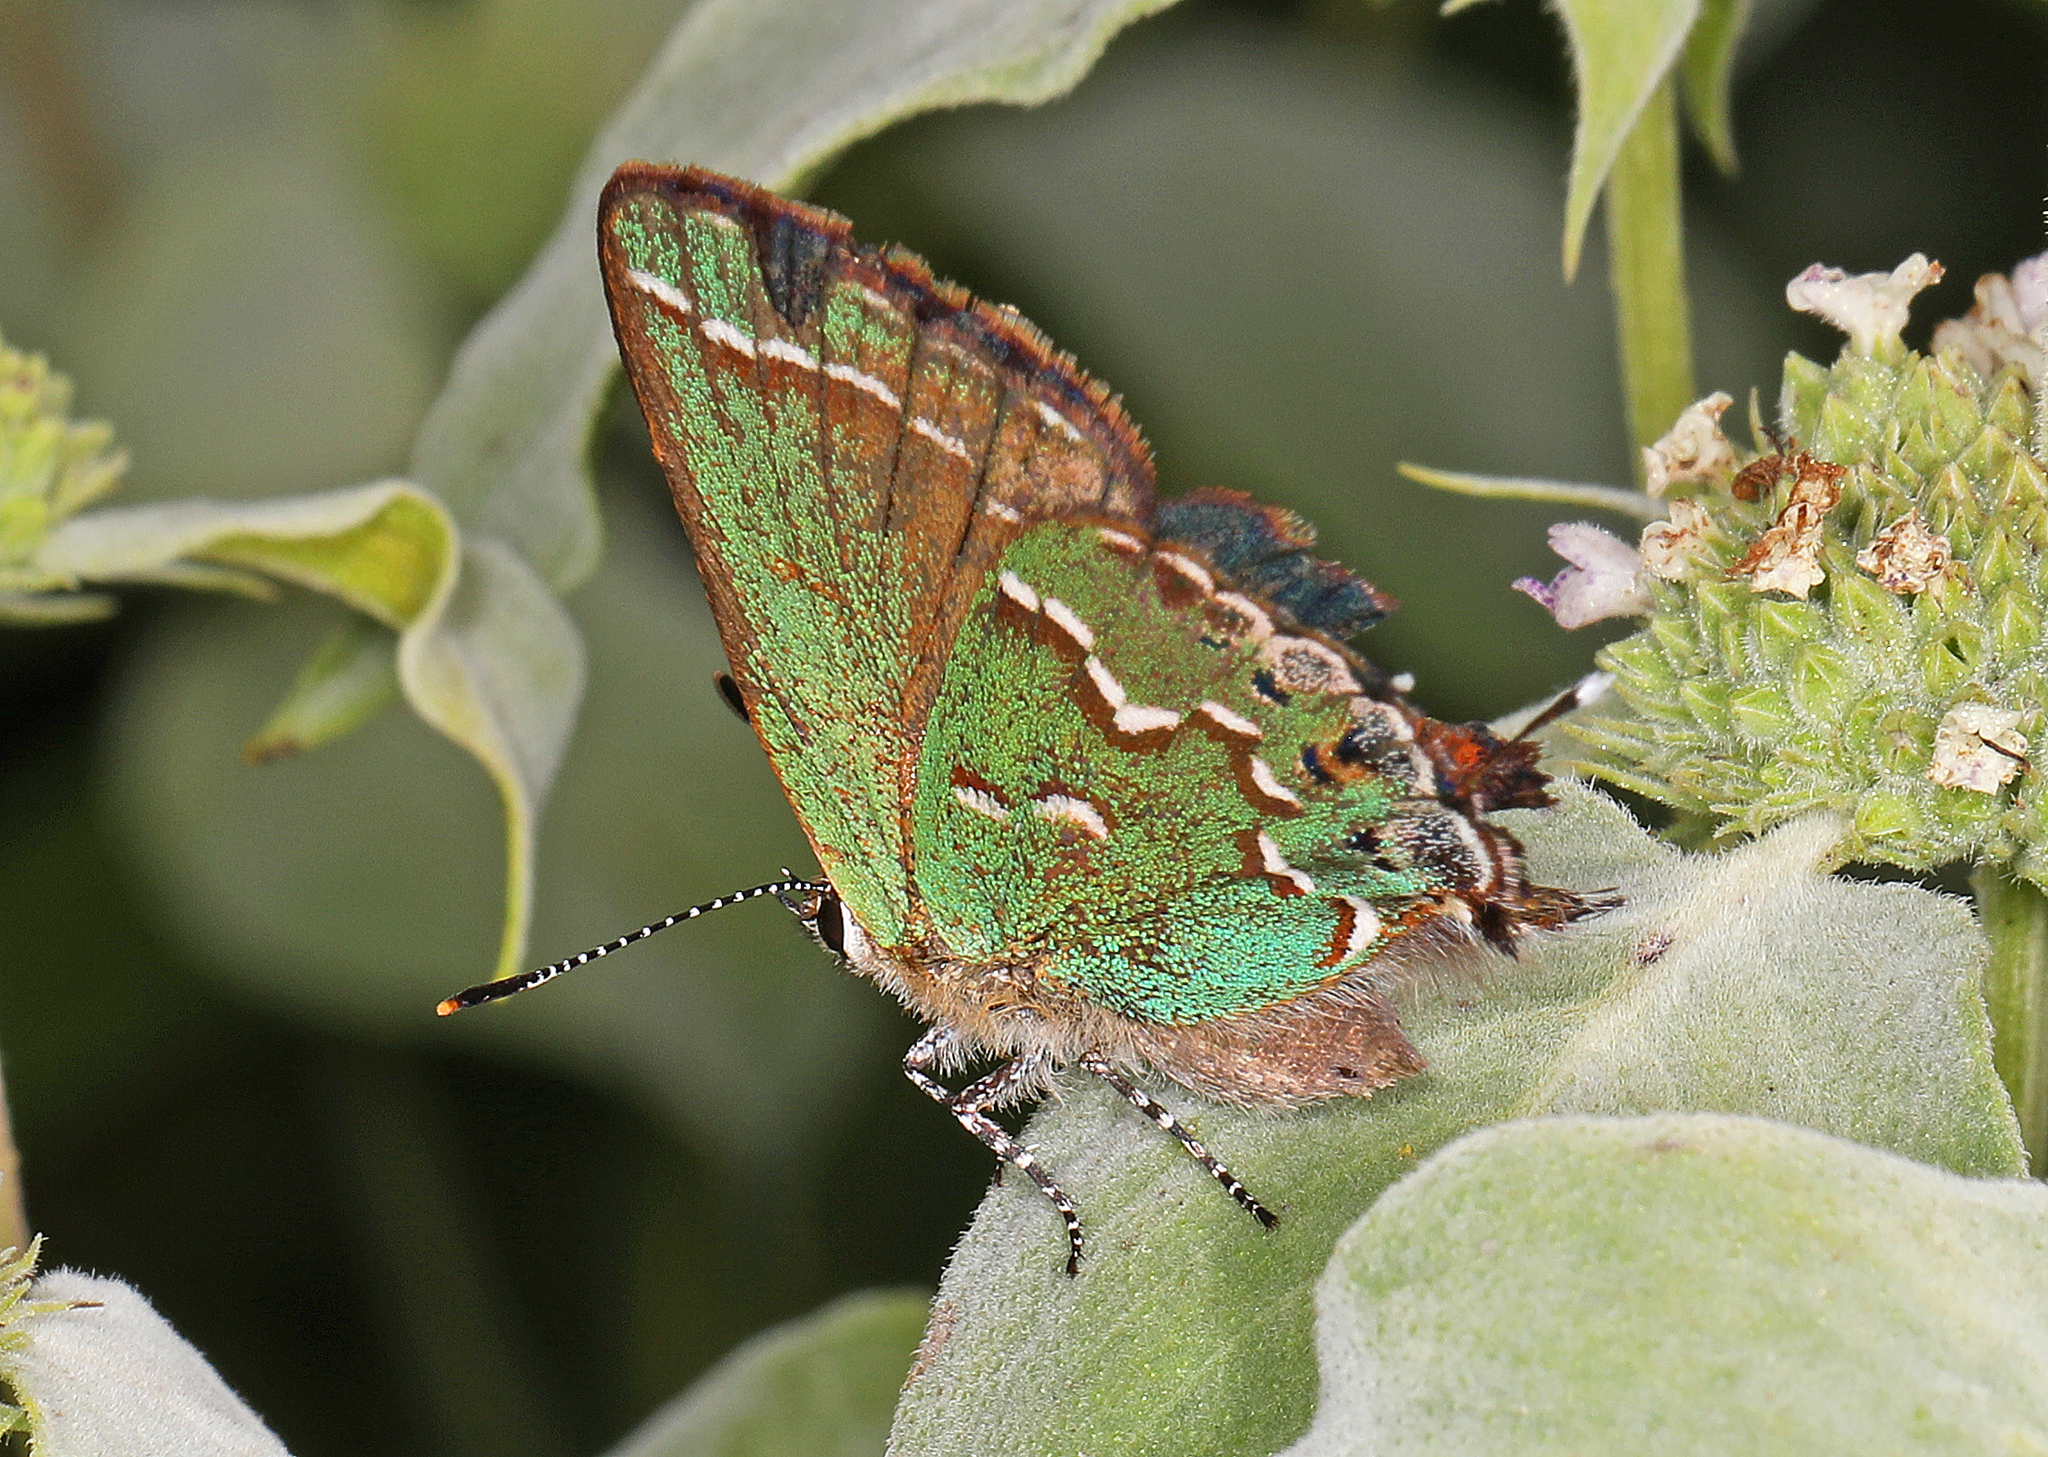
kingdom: Animalia
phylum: Arthropoda
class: Insecta
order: Lepidoptera
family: Lycaenidae
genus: Mitoura
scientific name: Mitoura gryneus
